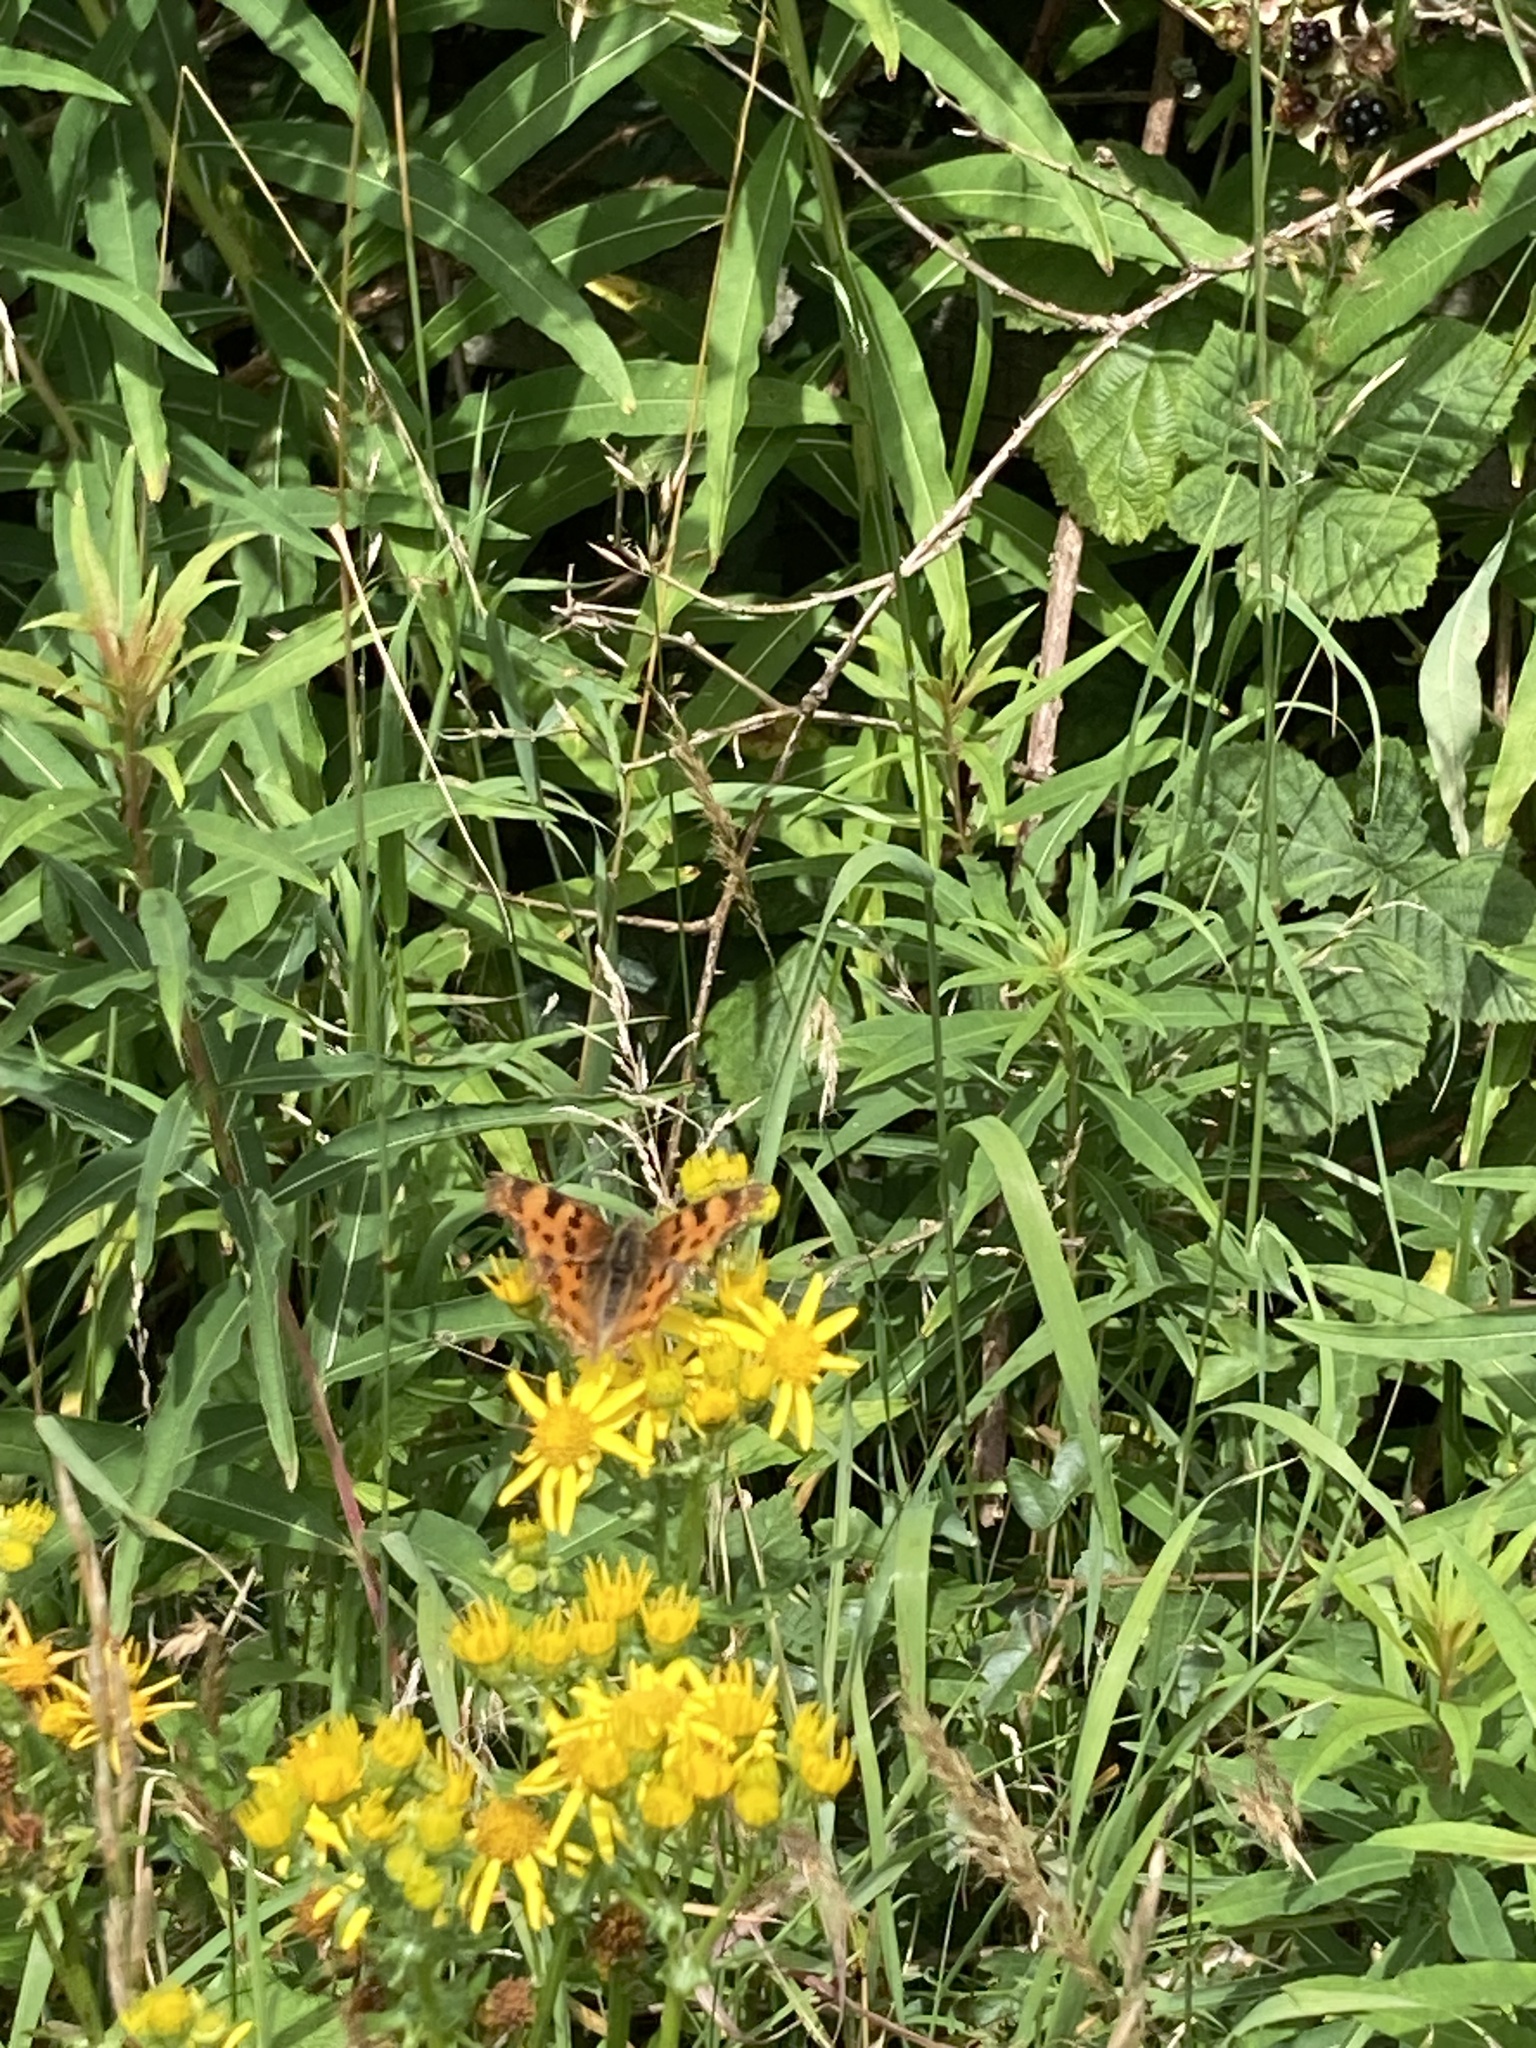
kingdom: Animalia
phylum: Arthropoda
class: Insecta
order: Lepidoptera
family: Nymphalidae
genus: Polygonia
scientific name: Polygonia c-album
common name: Comma
